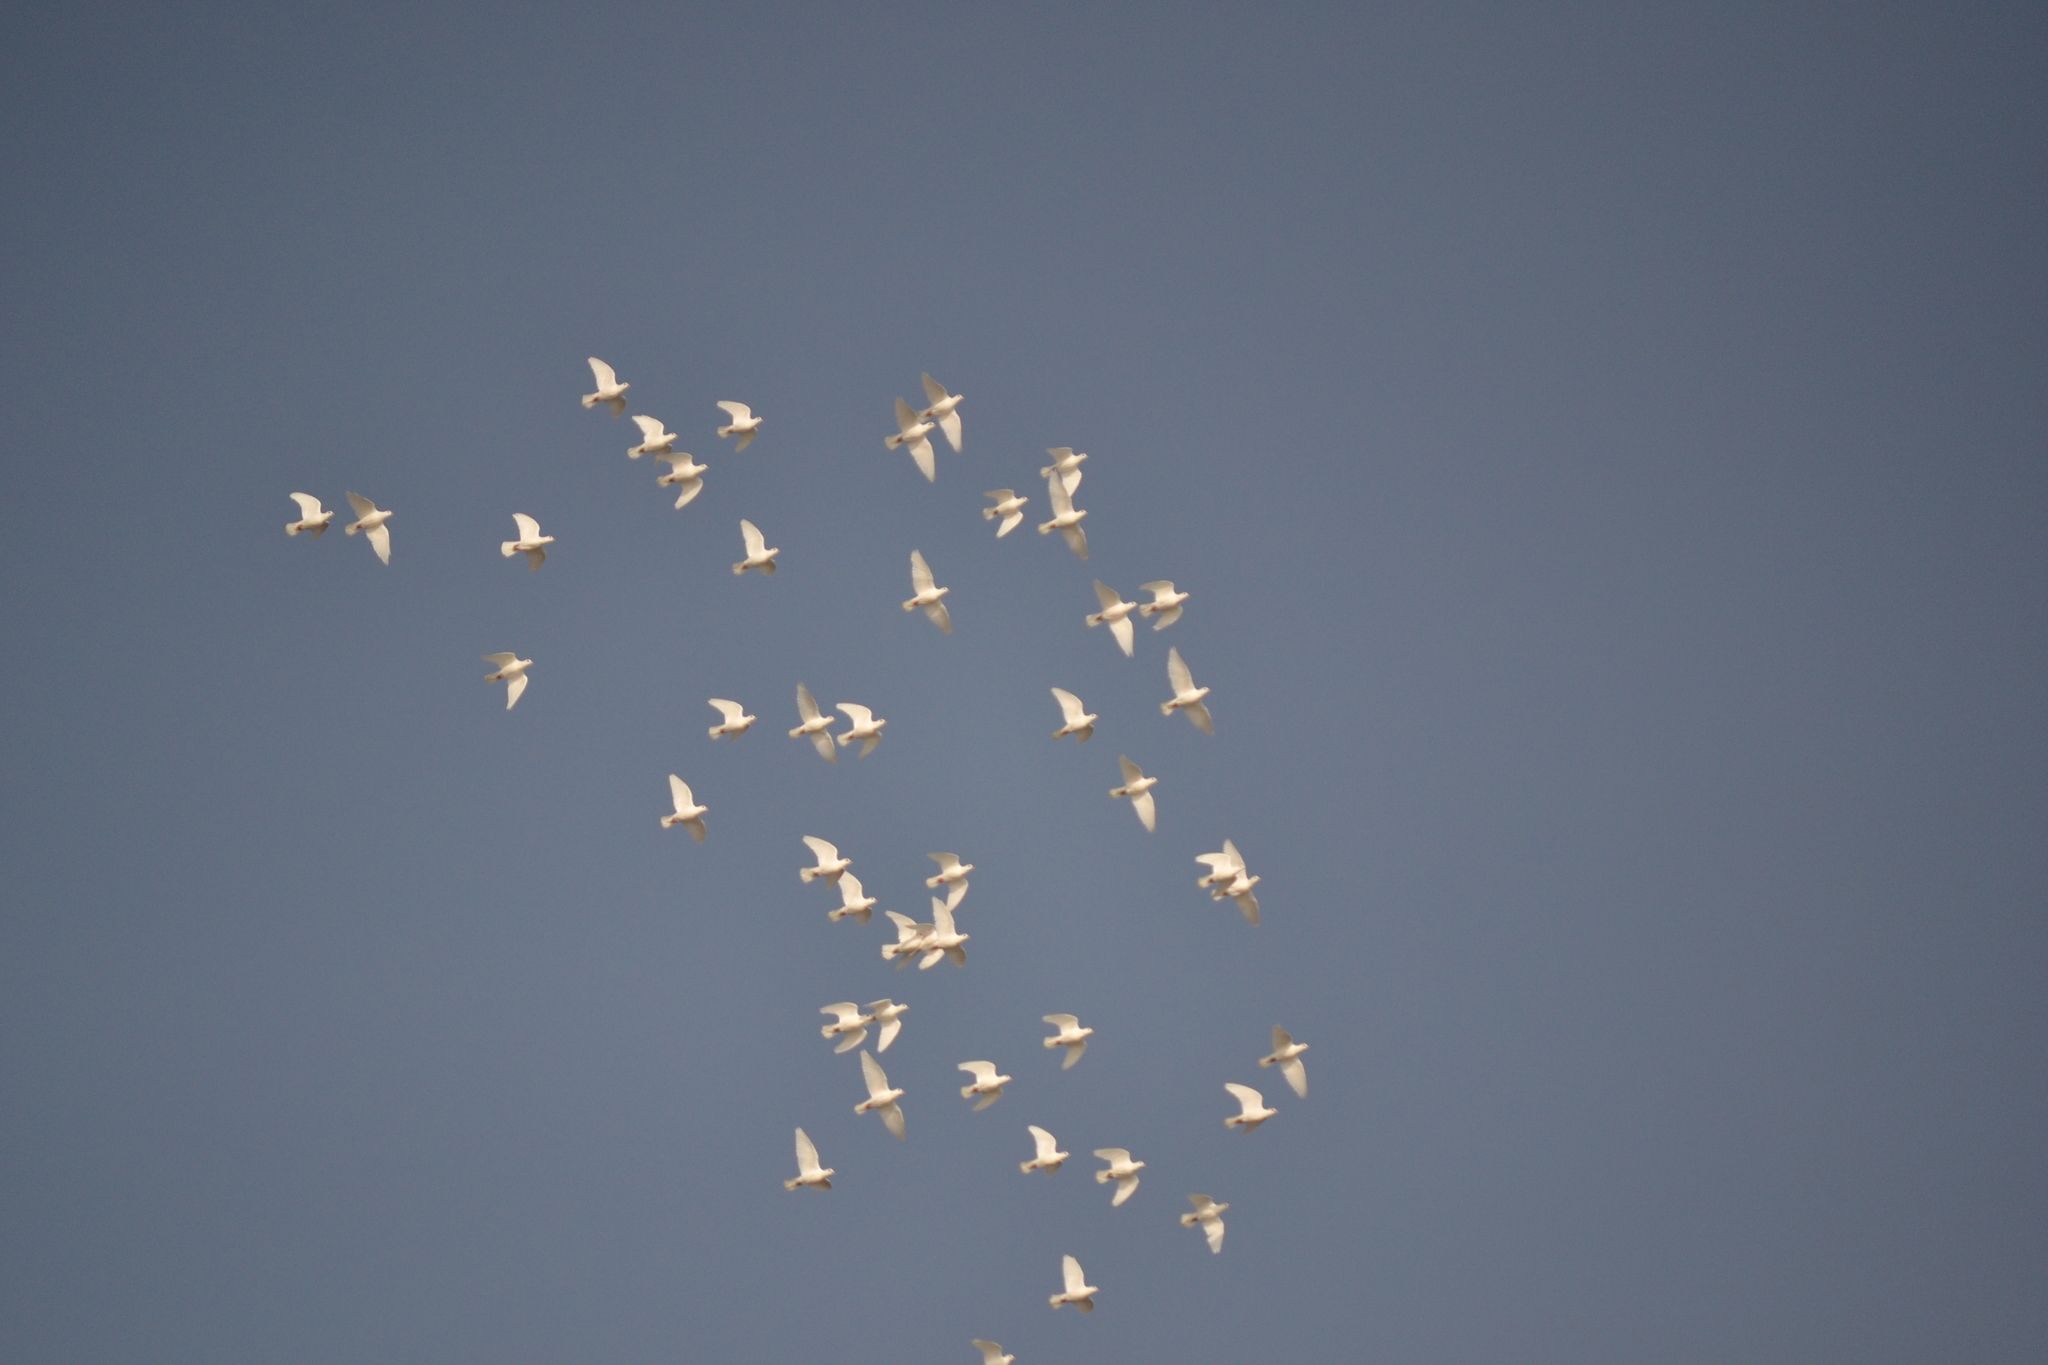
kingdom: Animalia
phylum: Chordata
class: Aves
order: Columbiformes
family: Columbidae
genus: Columba
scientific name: Columba livia
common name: Rock pigeon
